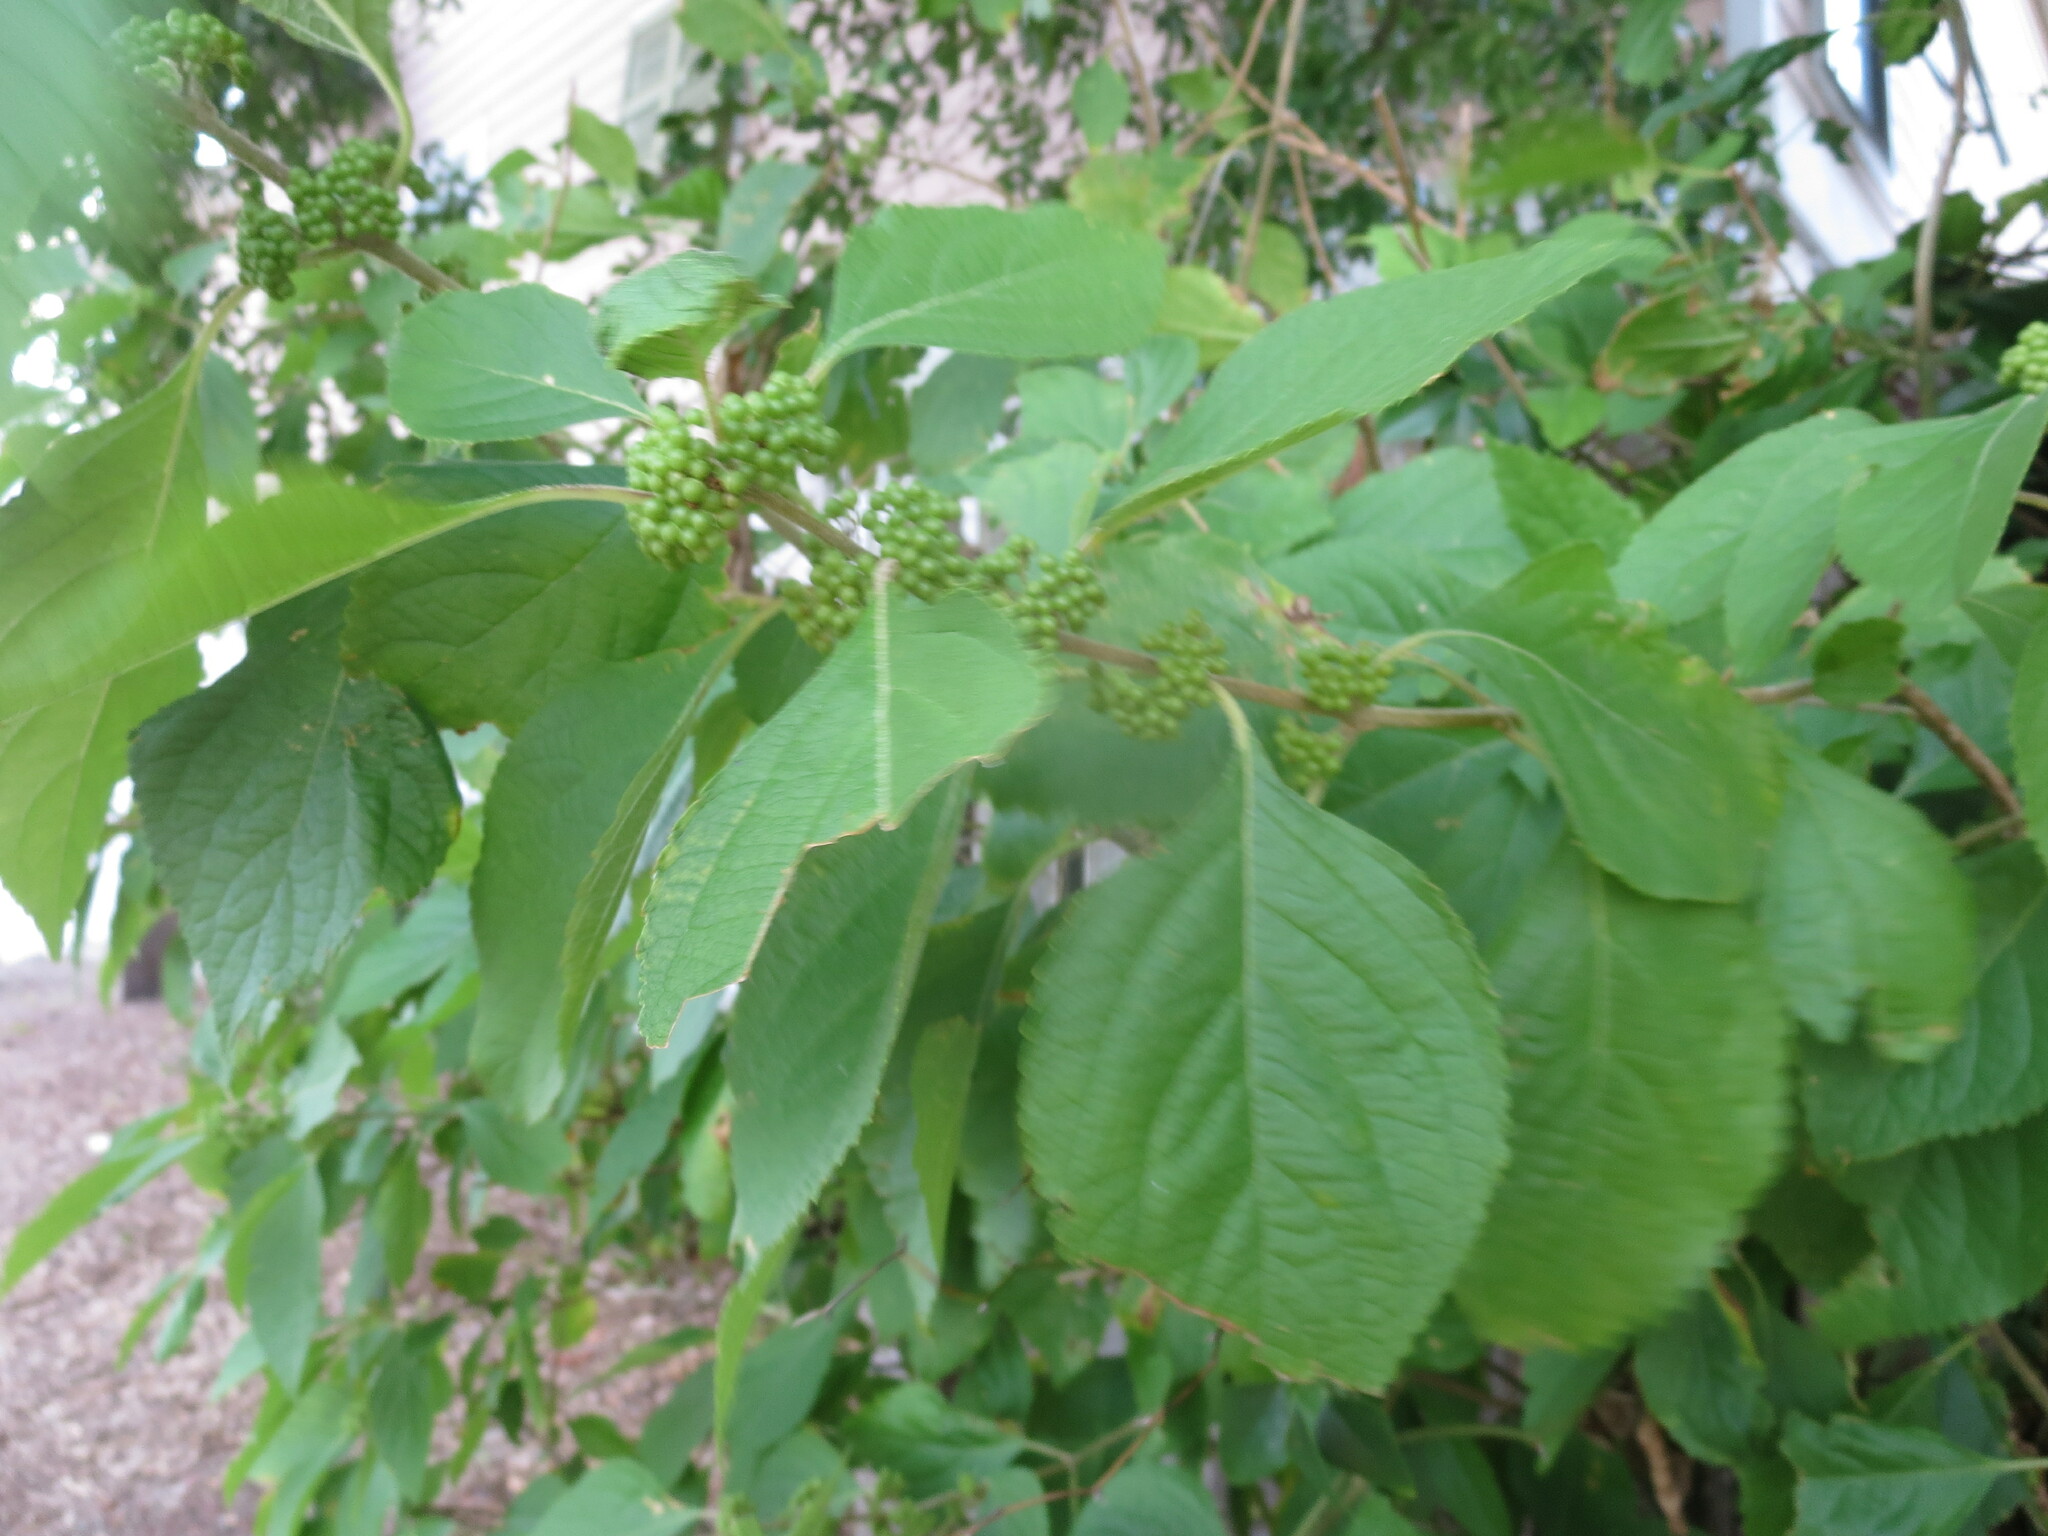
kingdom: Plantae
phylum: Tracheophyta
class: Magnoliopsida
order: Lamiales
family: Lamiaceae
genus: Callicarpa
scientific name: Callicarpa americana
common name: American beautyberry
